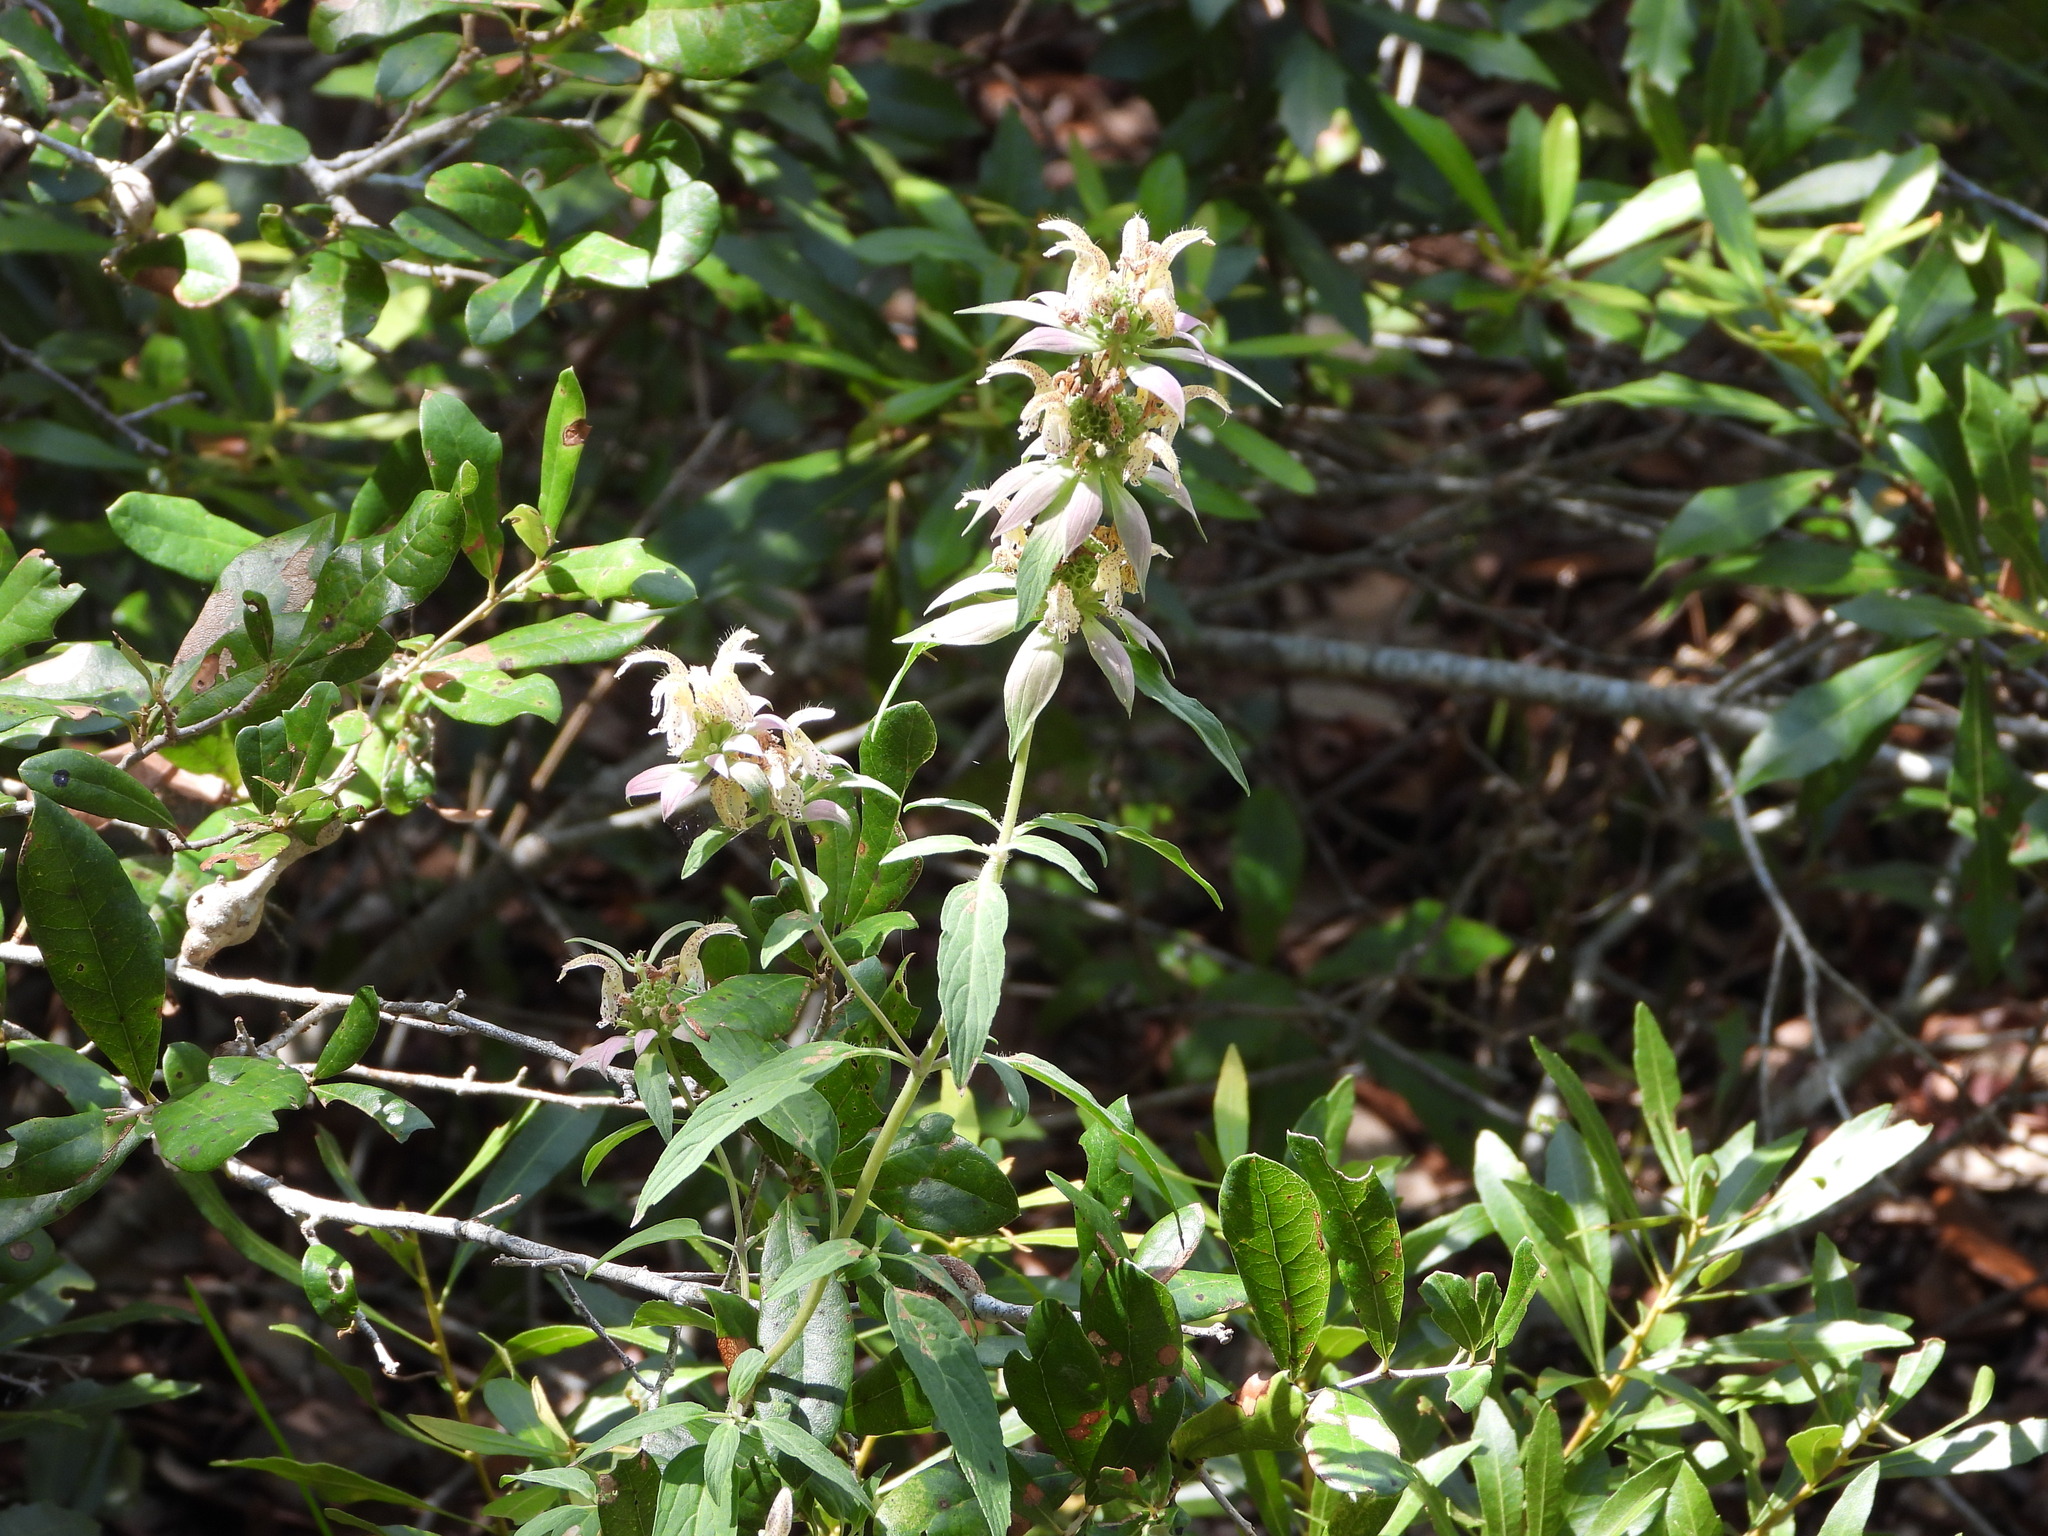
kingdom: Plantae
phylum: Tracheophyta
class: Magnoliopsida
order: Lamiales
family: Lamiaceae
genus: Monarda
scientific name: Monarda punctata
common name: Dotted monarda
